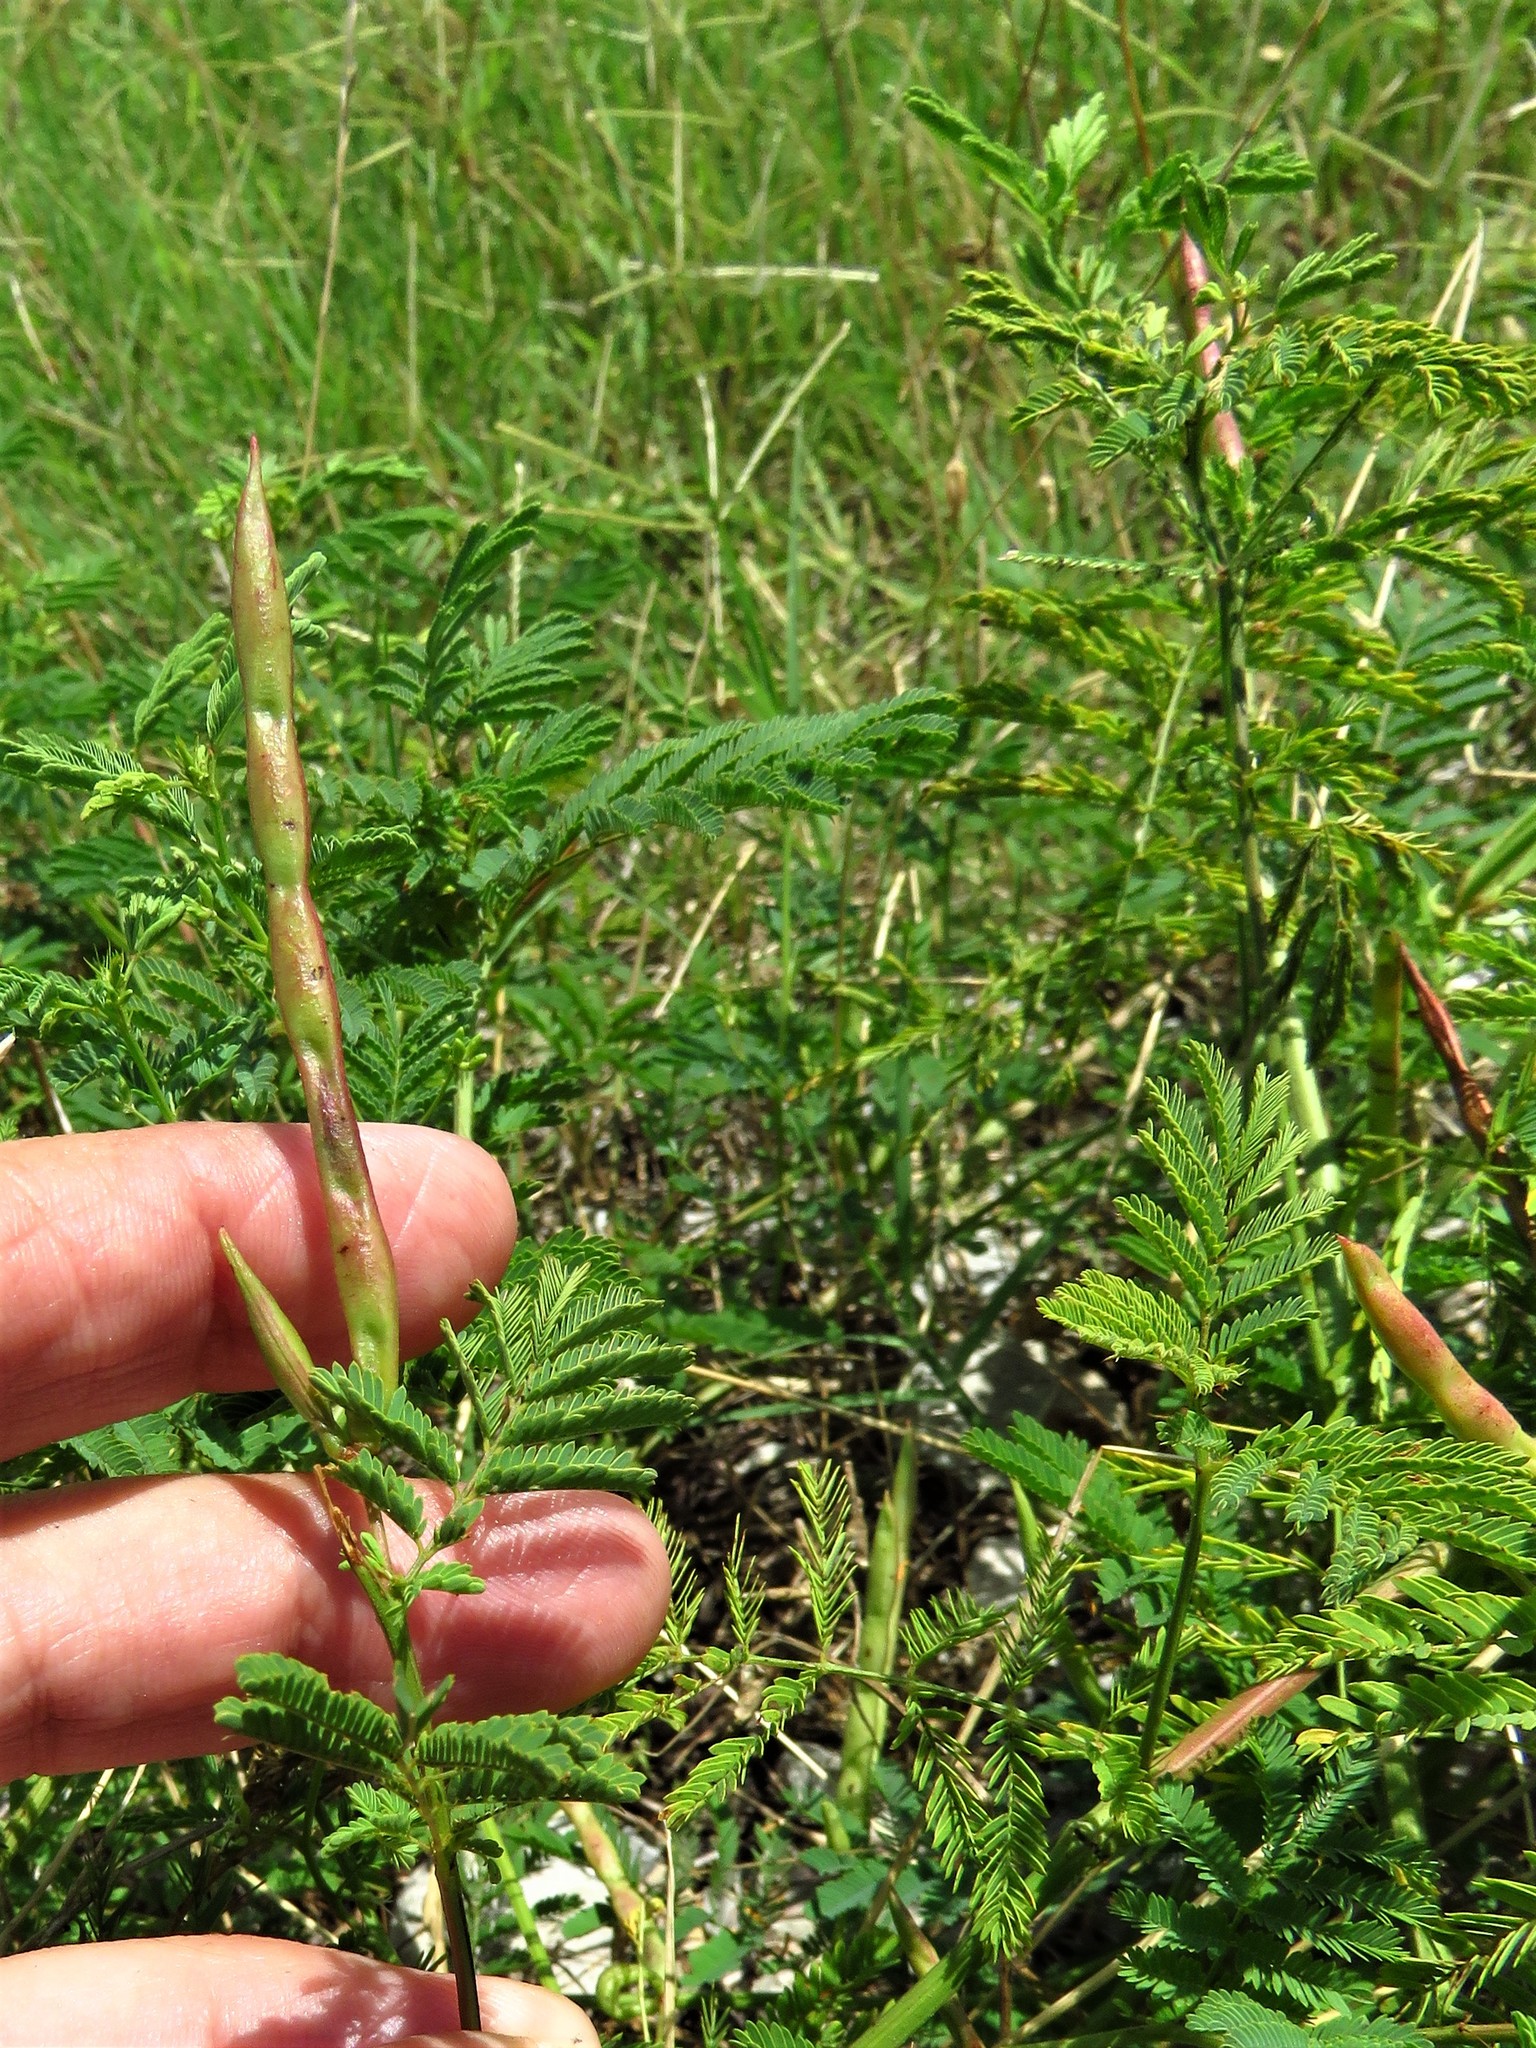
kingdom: Plantae
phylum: Tracheophyta
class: Magnoliopsida
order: Fabales
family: Fabaceae
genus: Desmanthus
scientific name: Desmanthus leptolobus
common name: Prairie-mimosa
